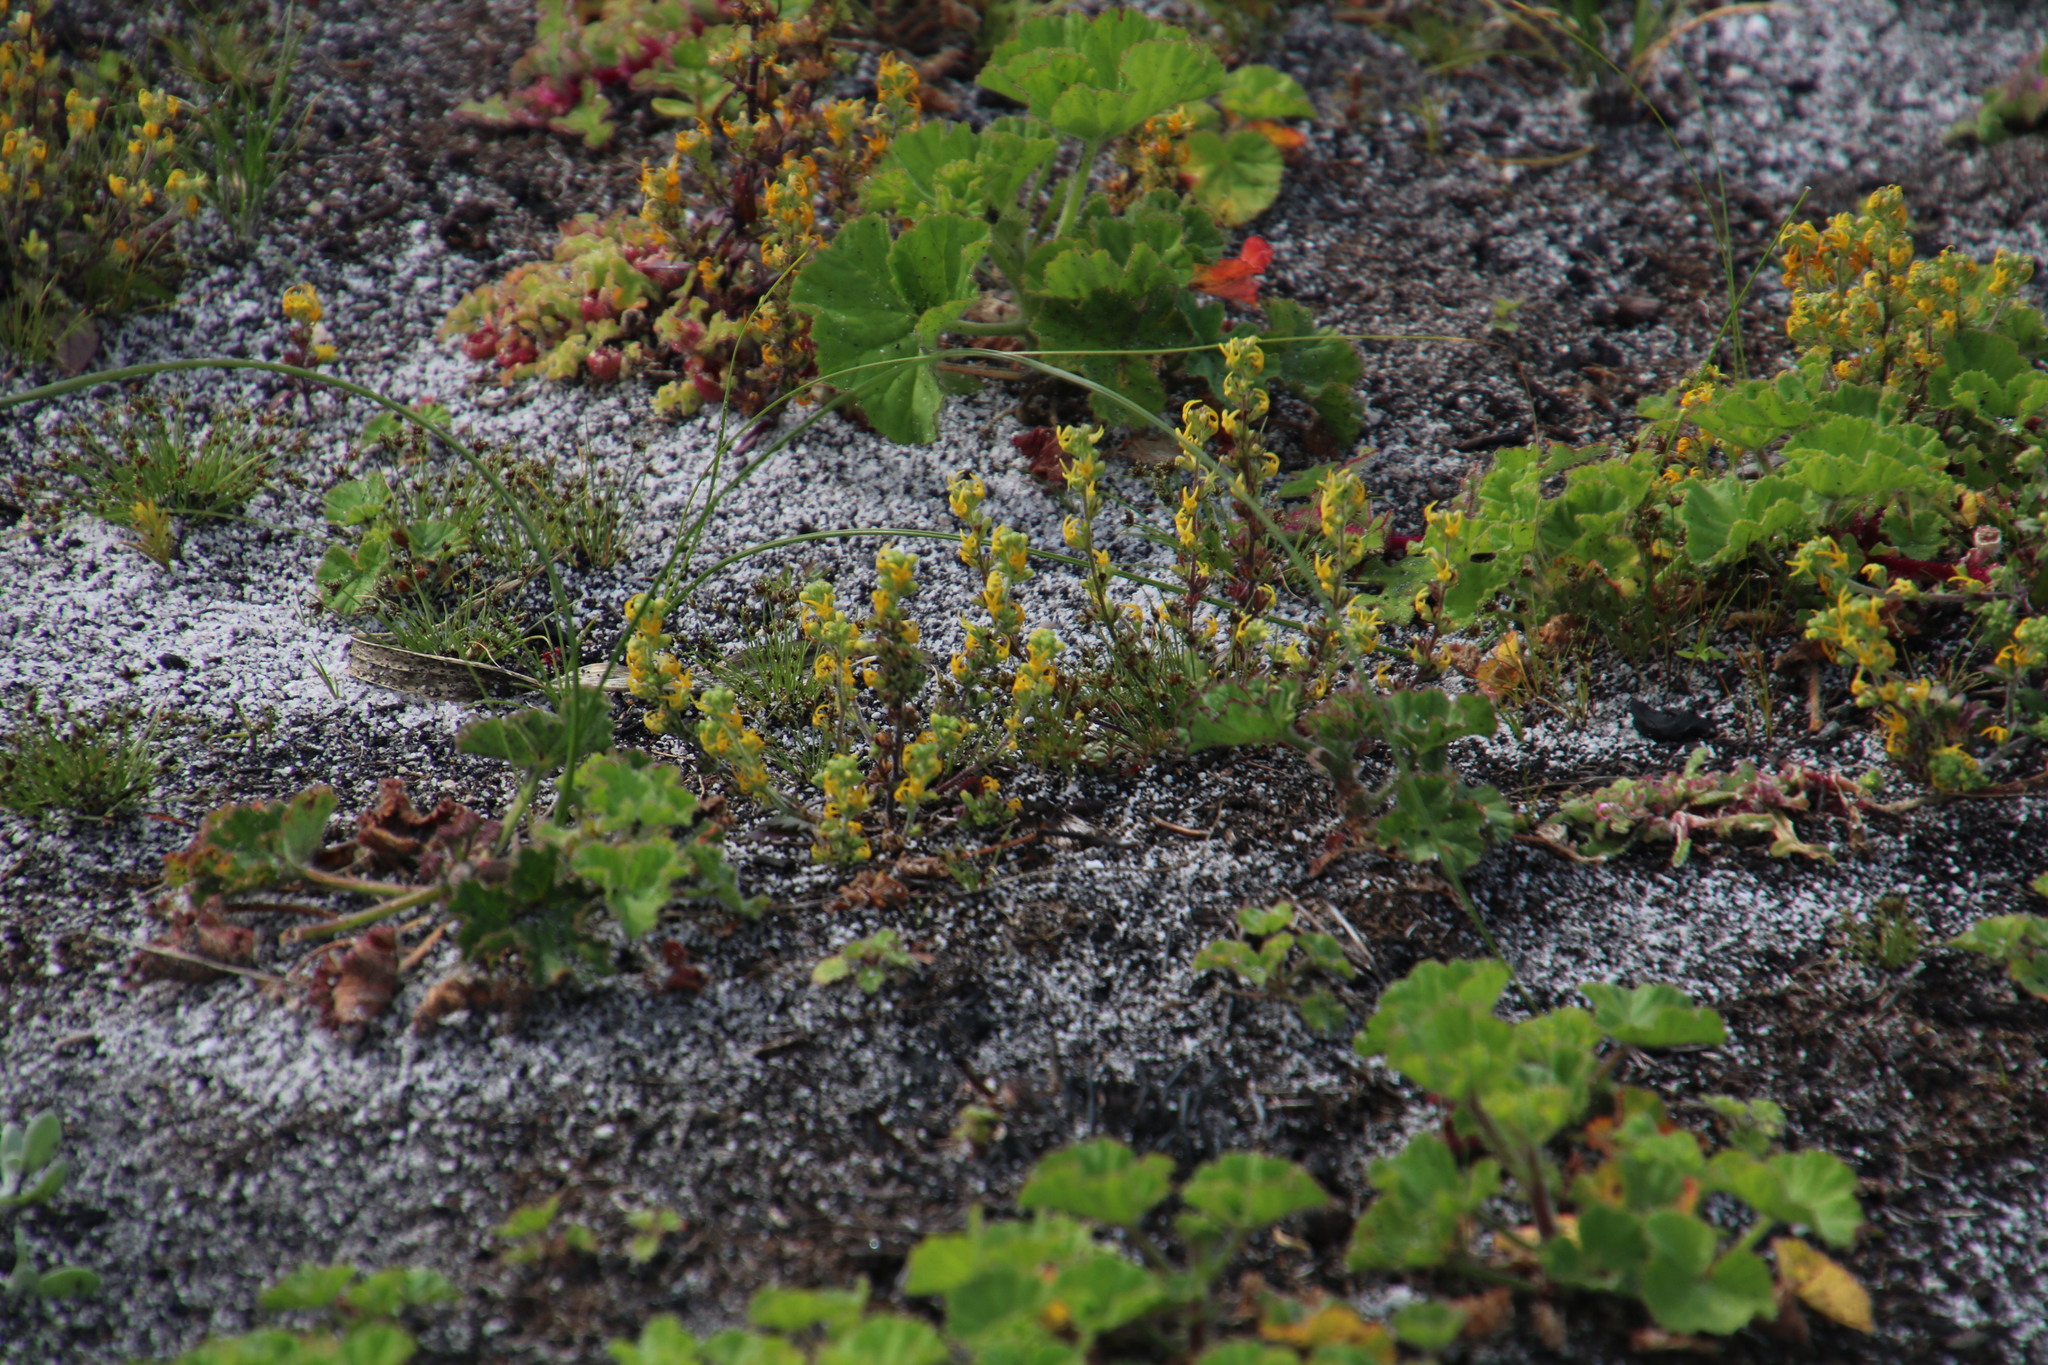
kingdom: Plantae
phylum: Tracheophyta
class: Magnoliopsida
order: Lamiales
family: Scrophulariaceae
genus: Manulea
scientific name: Manulea cheiranthus
